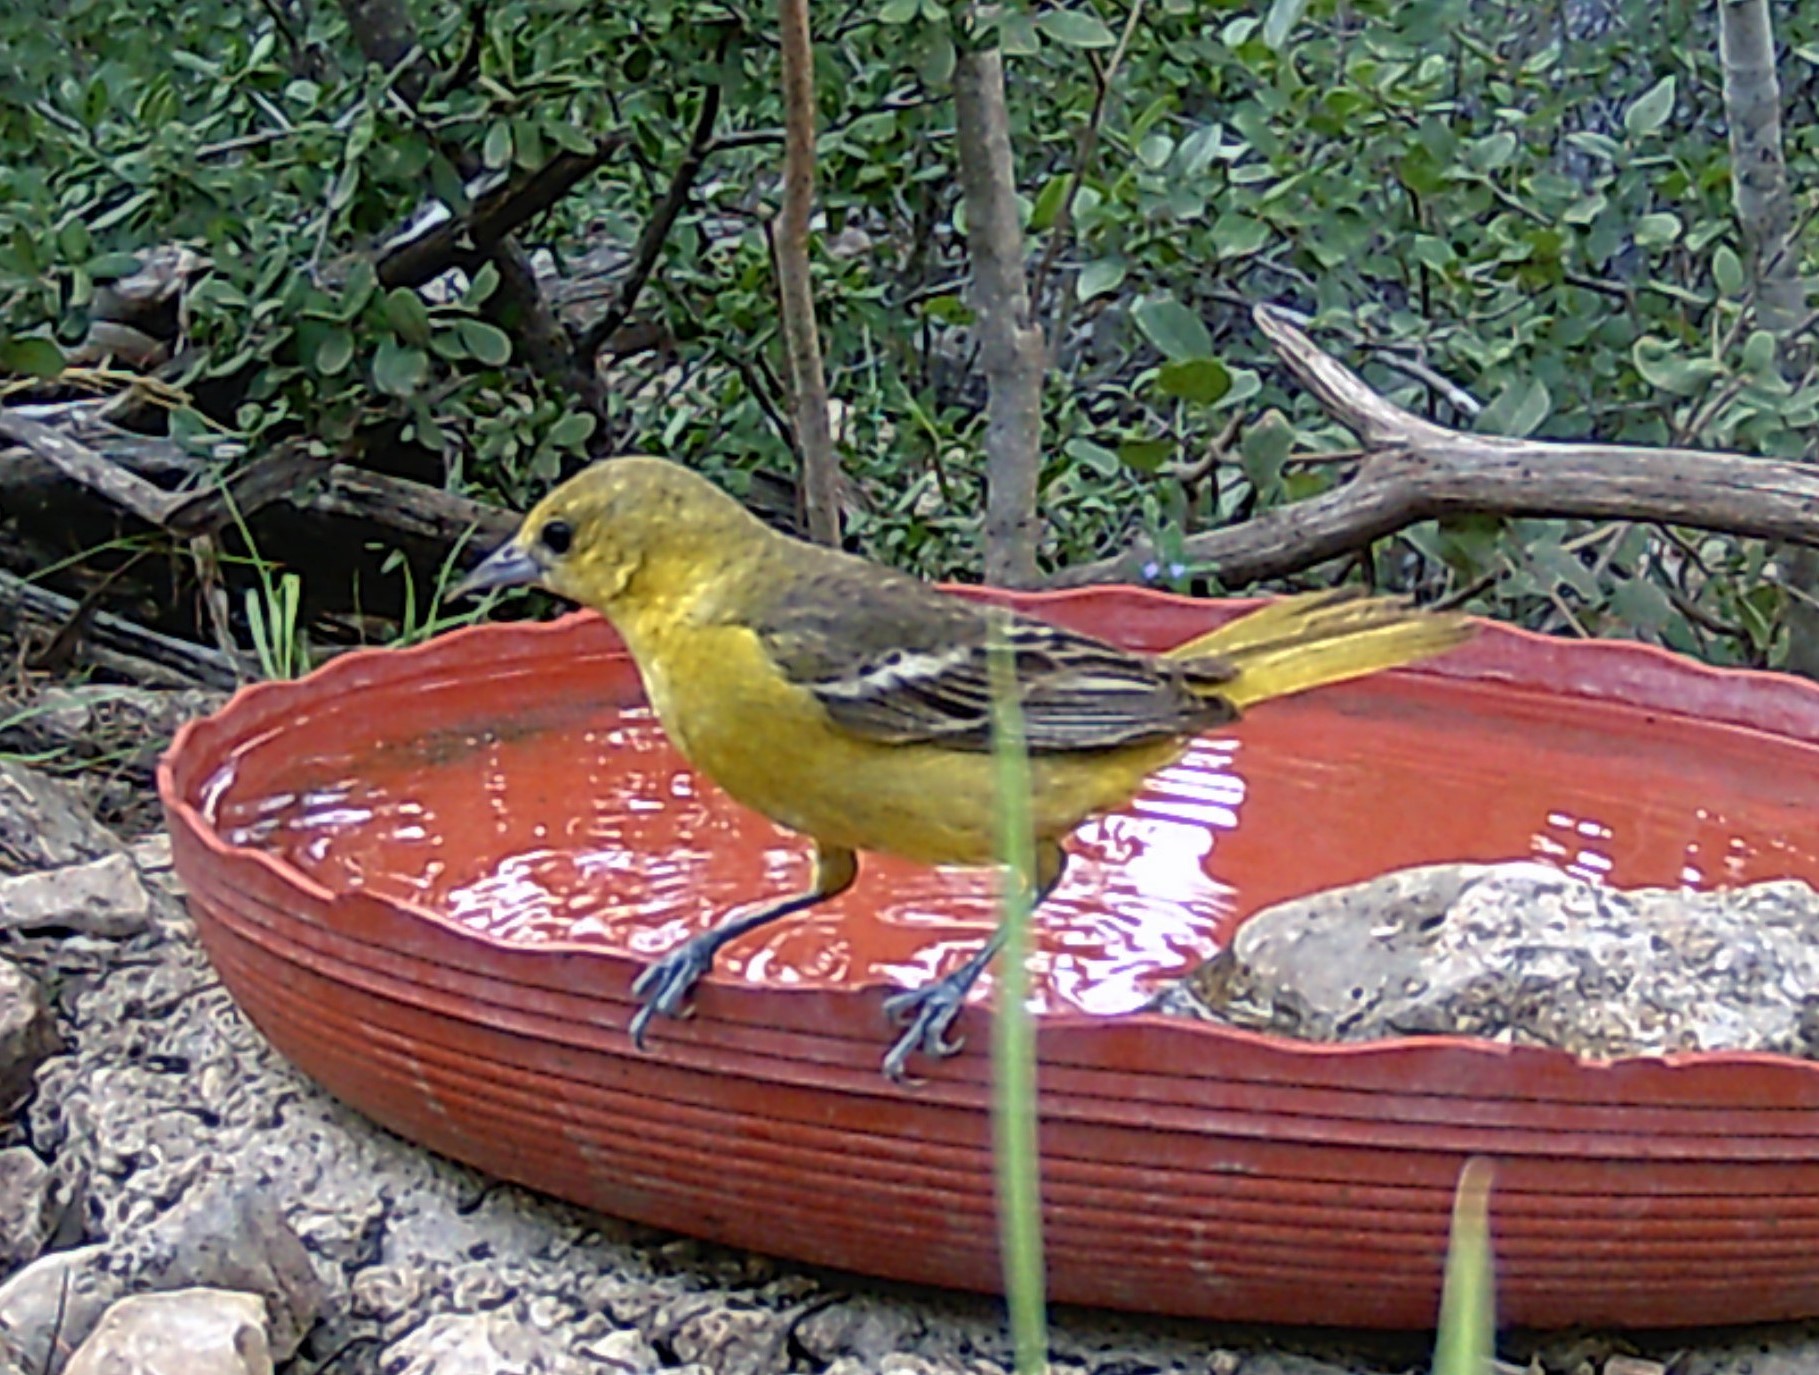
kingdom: Animalia
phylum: Chordata
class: Aves
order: Passeriformes
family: Icteridae
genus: Icterus
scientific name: Icterus spurius
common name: Orchard oriole
